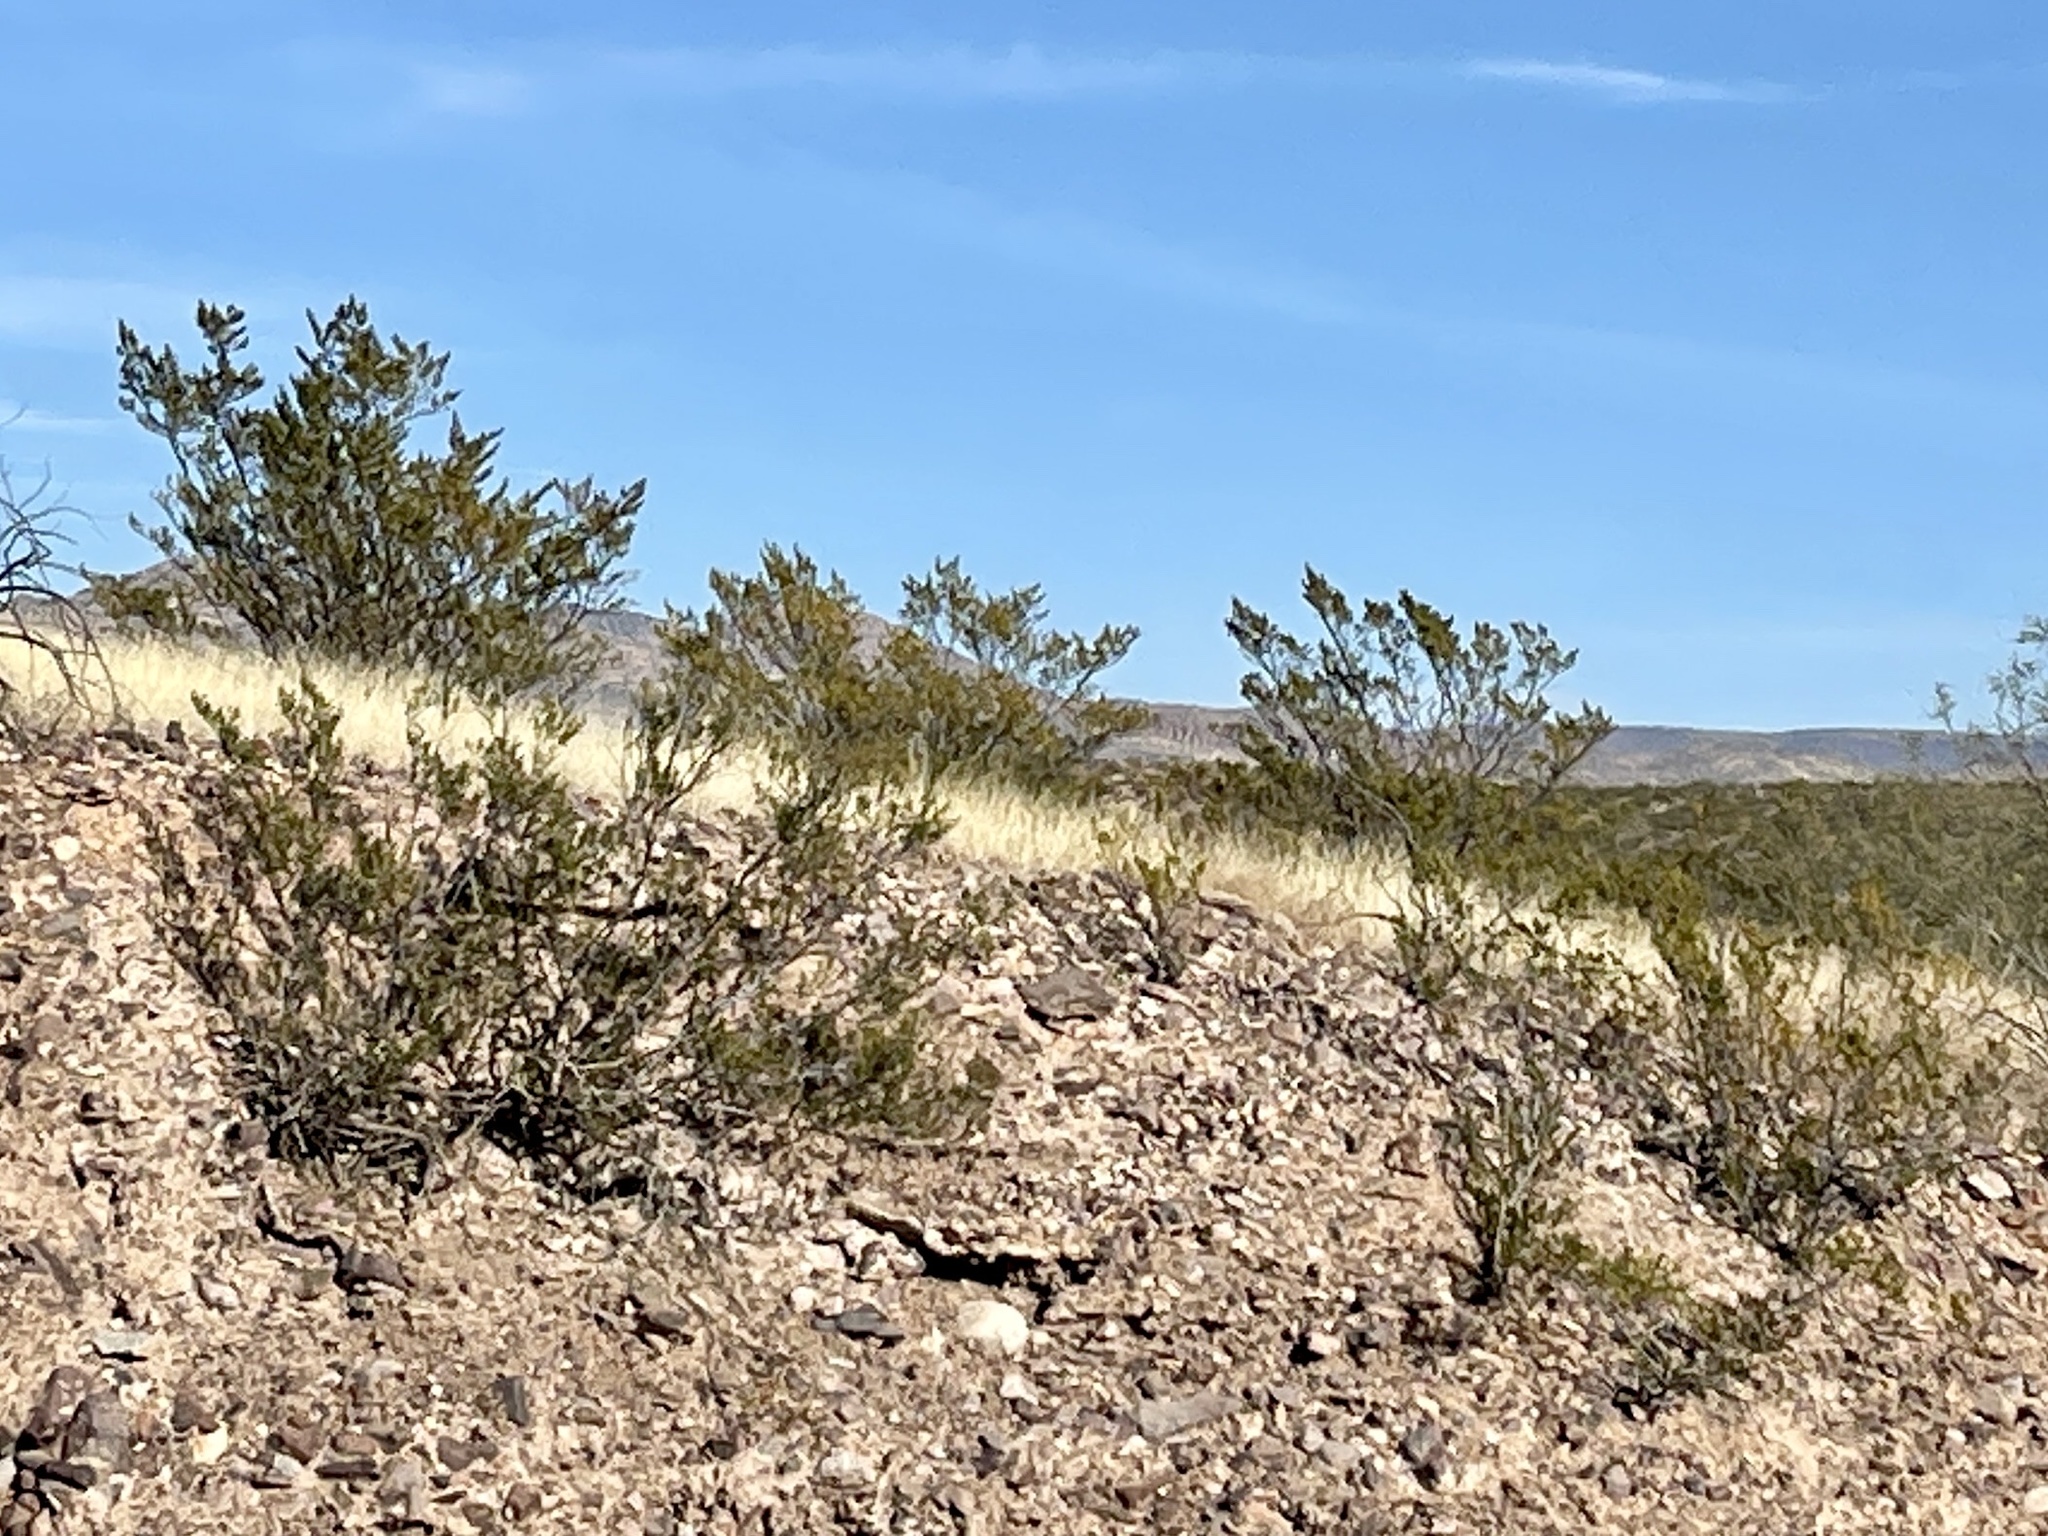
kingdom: Plantae
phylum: Tracheophyta
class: Magnoliopsida
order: Zygophyllales
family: Zygophyllaceae
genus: Larrea
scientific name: Larrea tridentata
